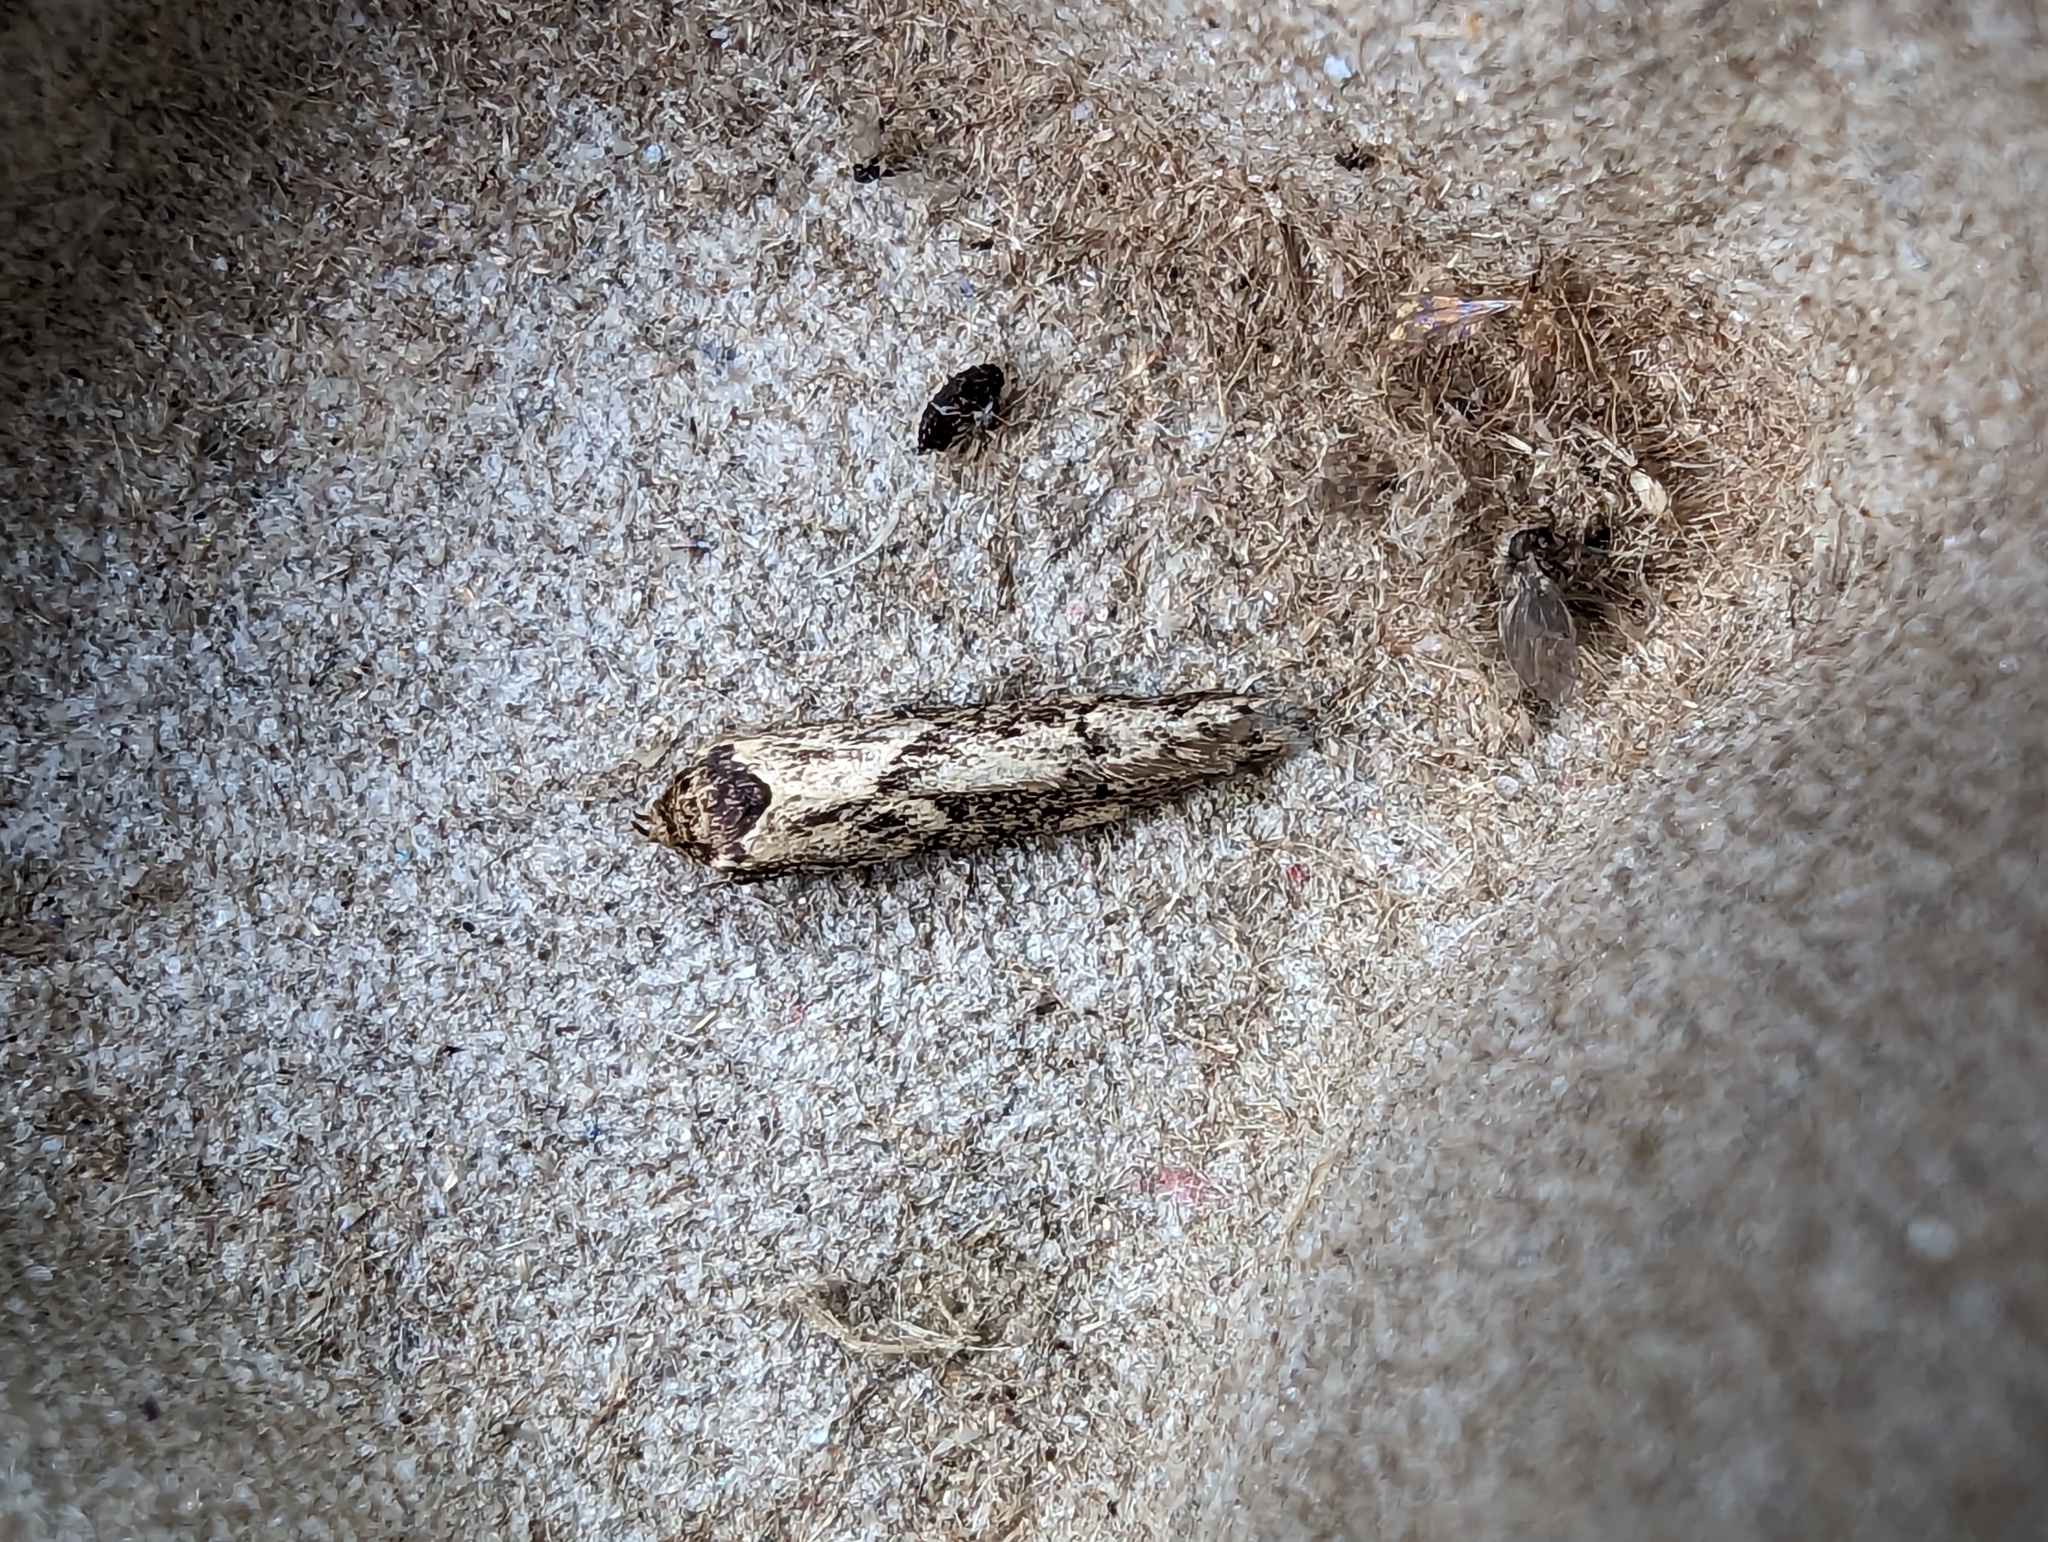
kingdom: Animalia
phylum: Arthropoda
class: Insecta
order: Lepidoptera
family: Blastobasidae
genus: Blastobasis
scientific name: Blastobasis adustella
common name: Dingy dowd
